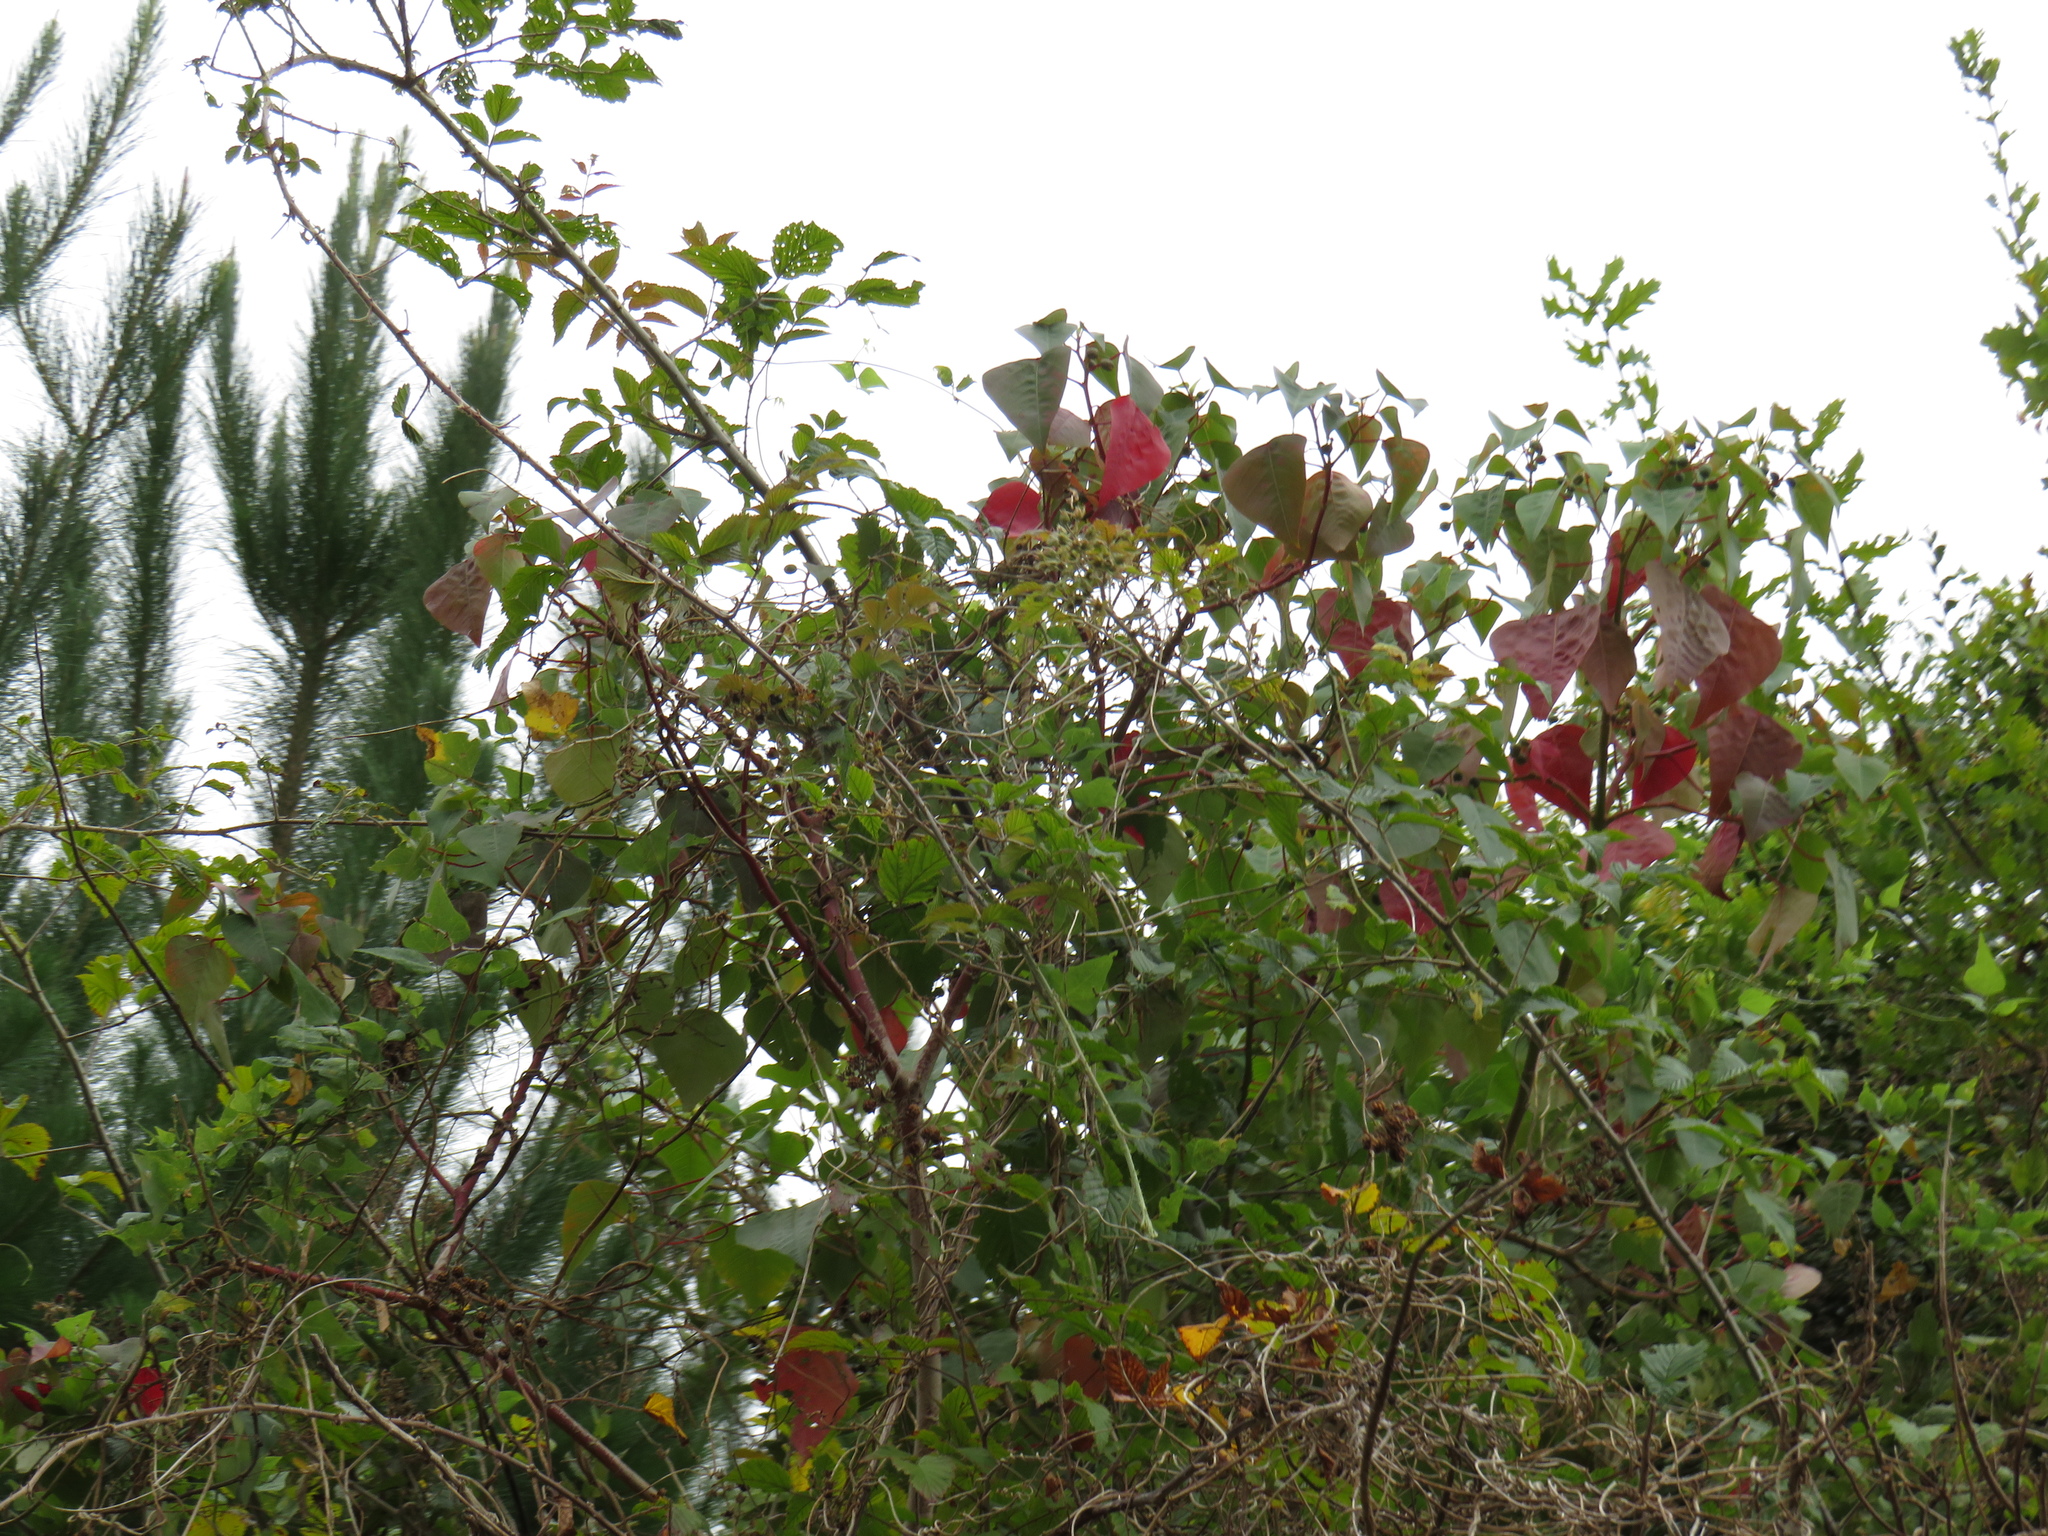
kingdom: Plantae
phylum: Tracheophyta
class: Magnoliopsida
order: Malpighiales
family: Euphorbiaceae
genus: Homalanthus
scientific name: Homalanthus populifolius
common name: Queensland poplar
